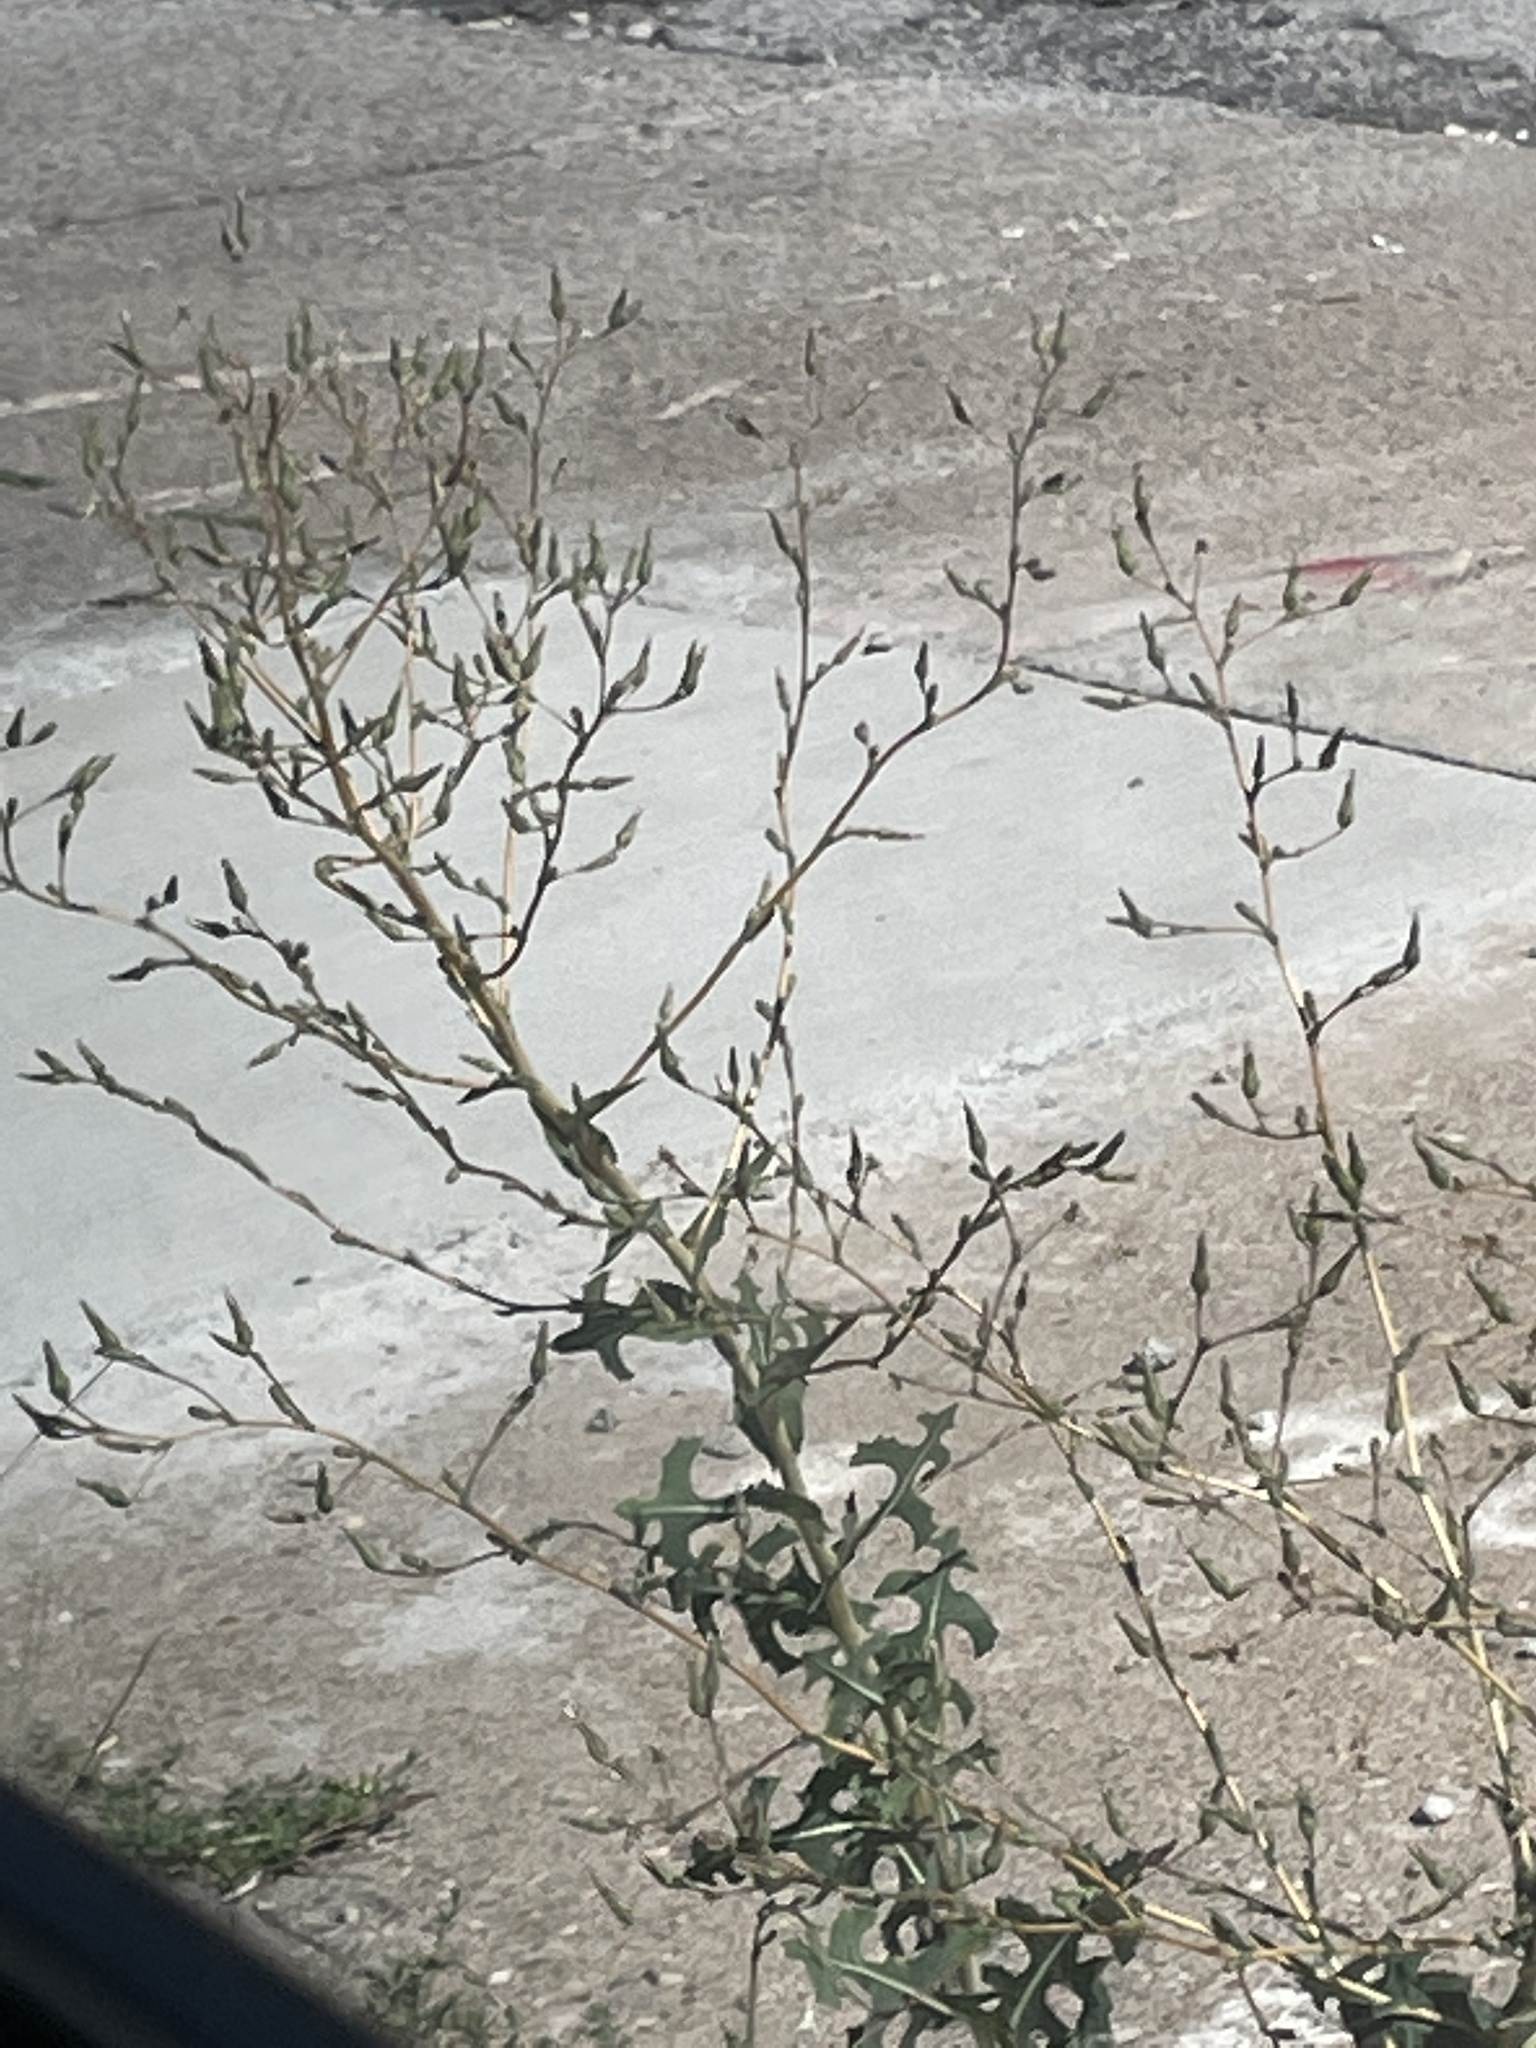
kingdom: Plantae
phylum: Tracheophyta
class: Magnoliopsida
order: Asterales
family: Asteraceae
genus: Lactuca
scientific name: Lactuca serriola
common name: Prickly lettuce
